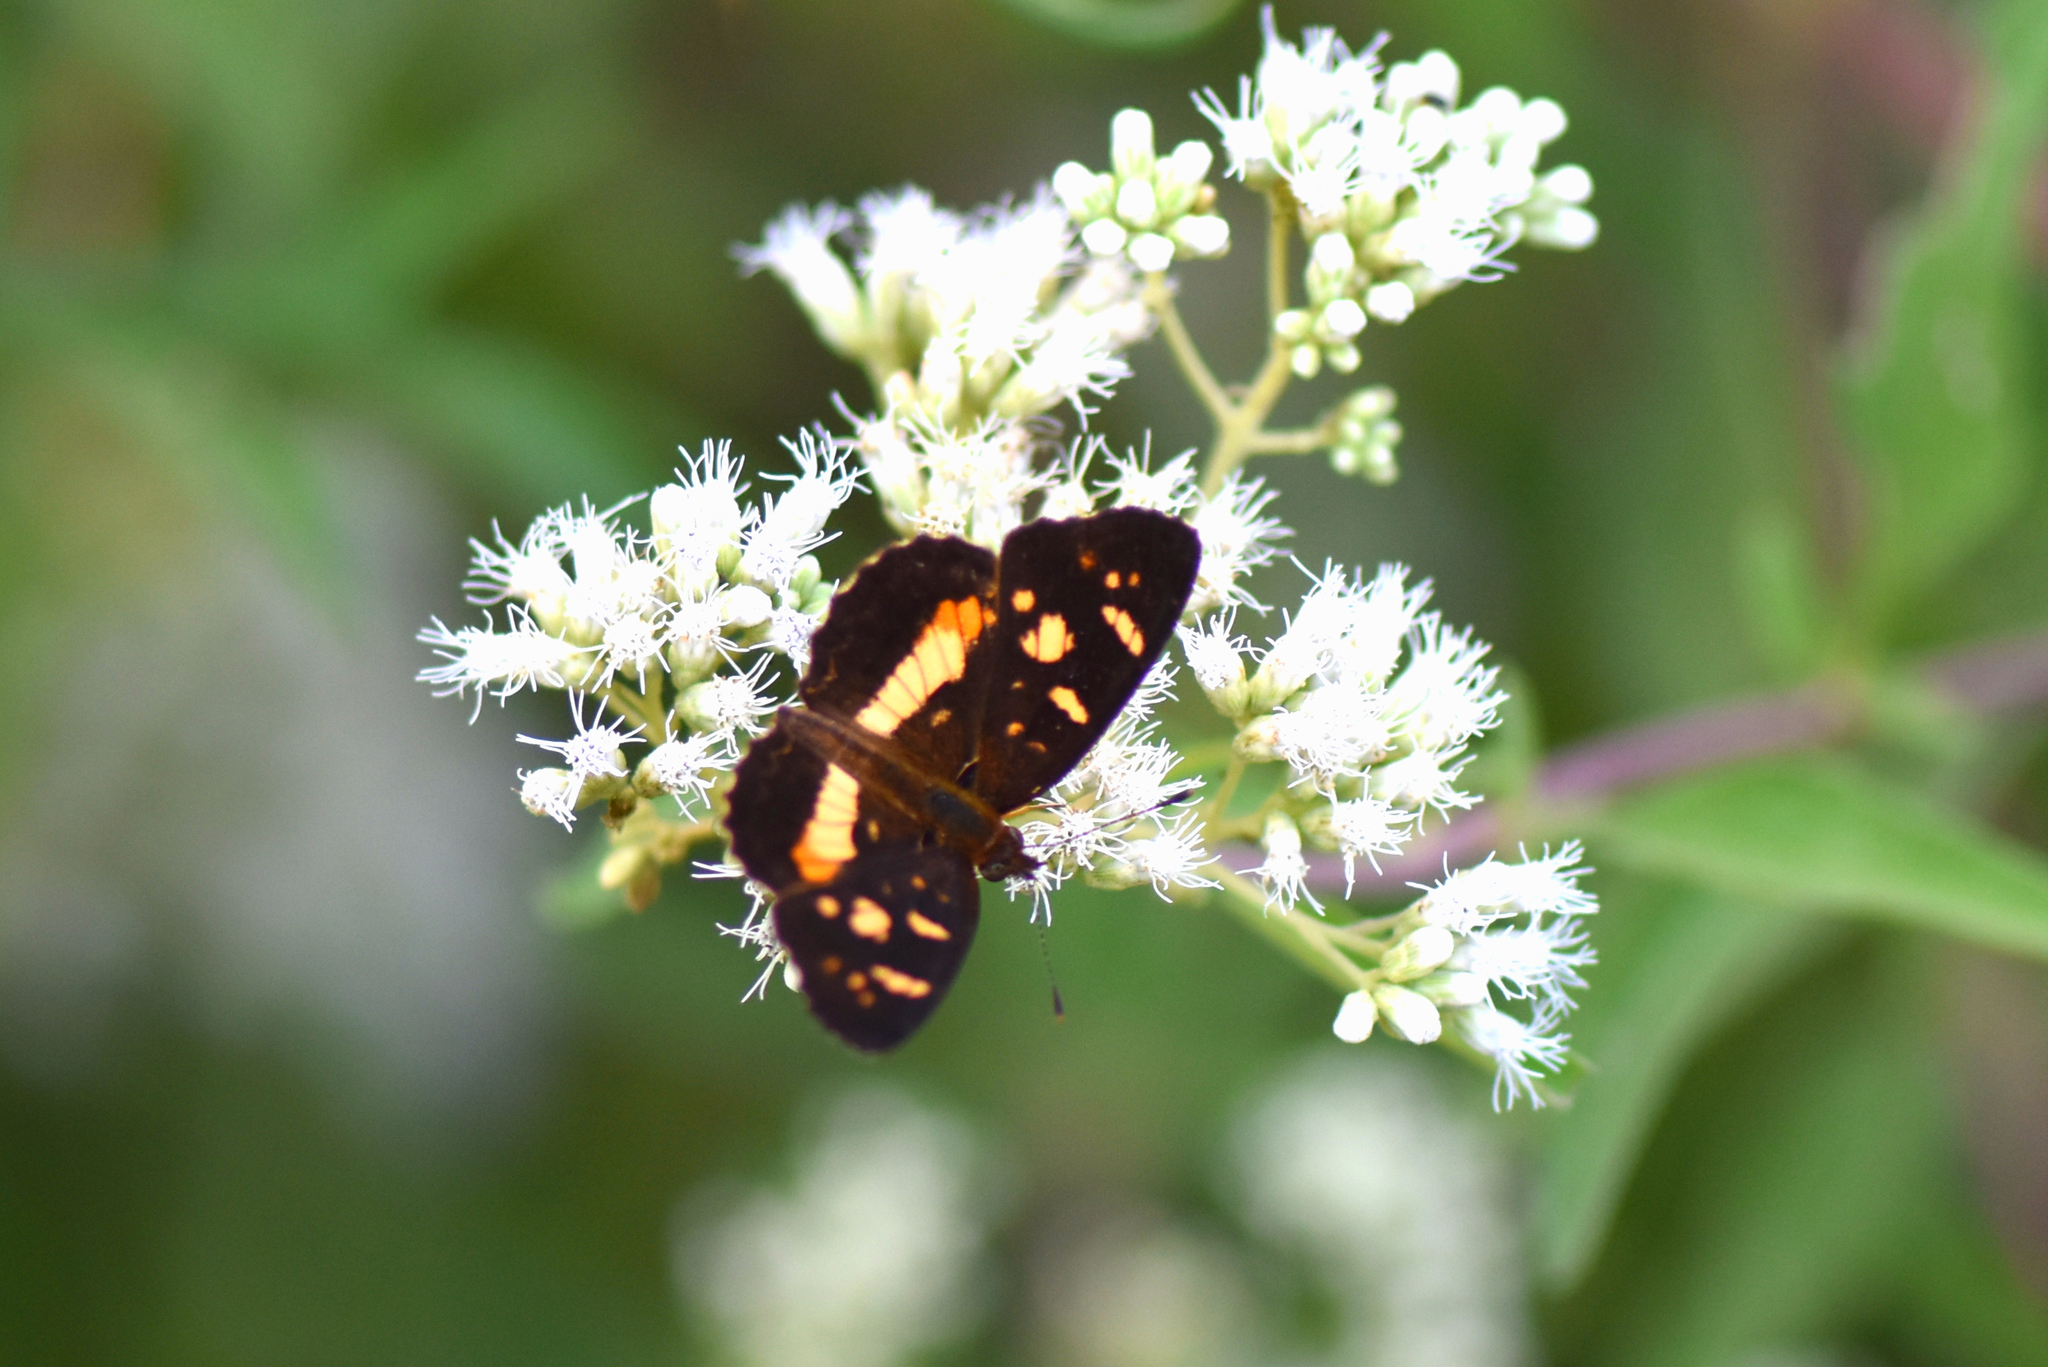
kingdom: Animalia
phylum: Arthropoda
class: Insecta
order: Lepidoptera
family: Nymphalidae
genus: Ortilia
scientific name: Ortilia orthia
